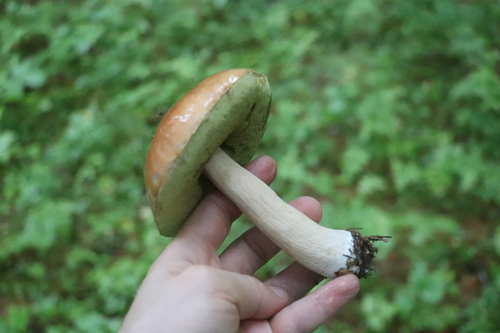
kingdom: Fungi
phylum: Basidiomycota
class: Agaricomycetes
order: Boletales
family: Boletaceae
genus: Boletus
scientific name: Boletus edulis
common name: Cep
